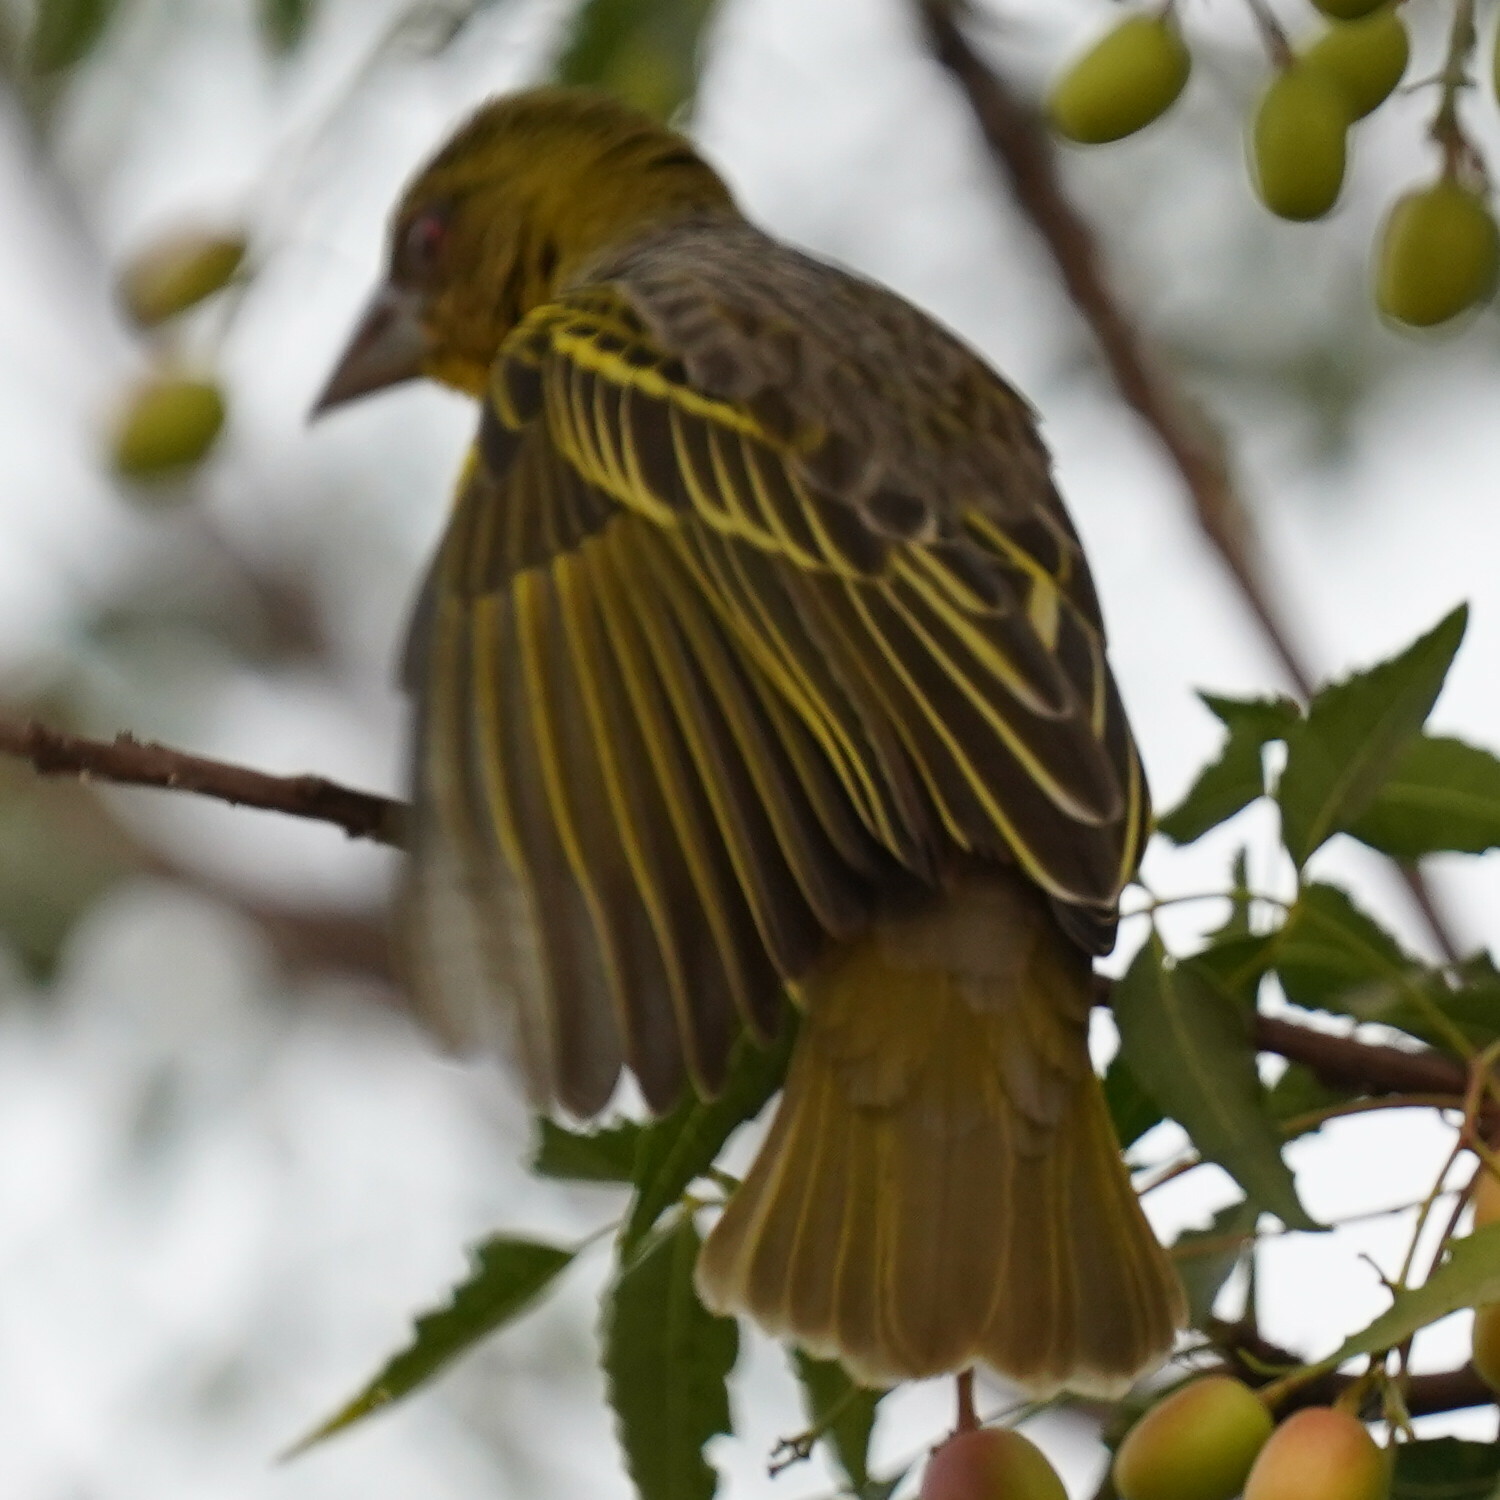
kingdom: Animalia
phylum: Chordata
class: Aves
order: Passeriformes
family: Ploceidae
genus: Ploceus
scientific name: Ploceus cucullatus
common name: Village weaver
